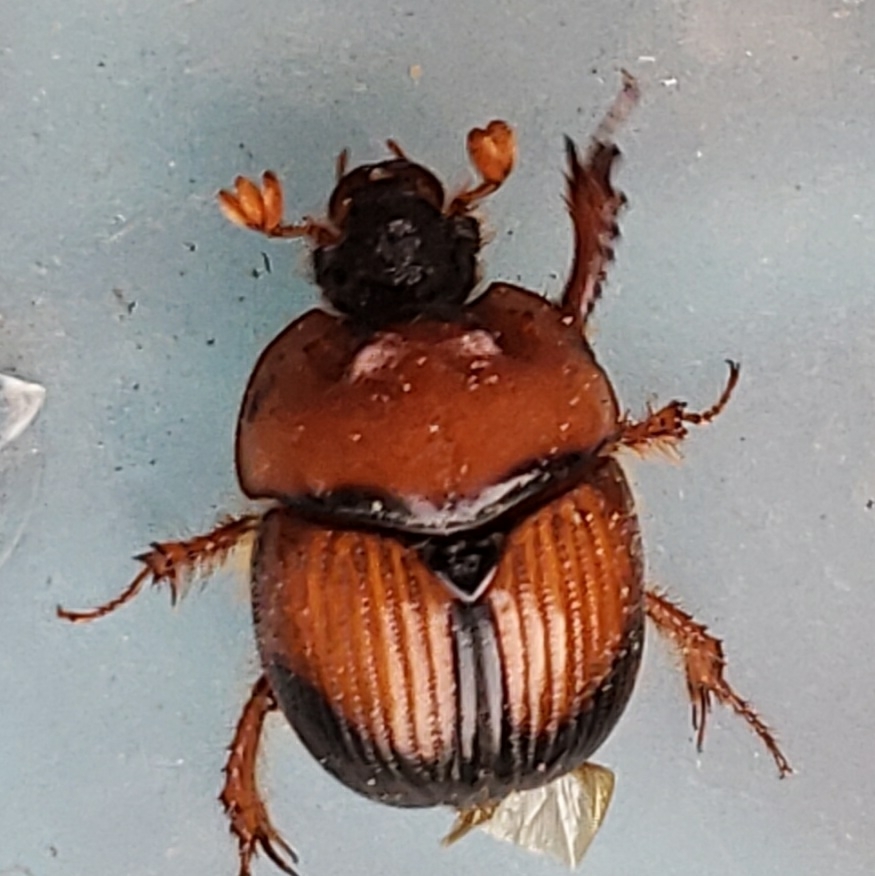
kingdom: Animalia
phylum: Arthropoda
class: Insecta
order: Coleoptera
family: Geotrupidae
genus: Bolbocerosoma
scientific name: Bolbocerosoma bruneri
